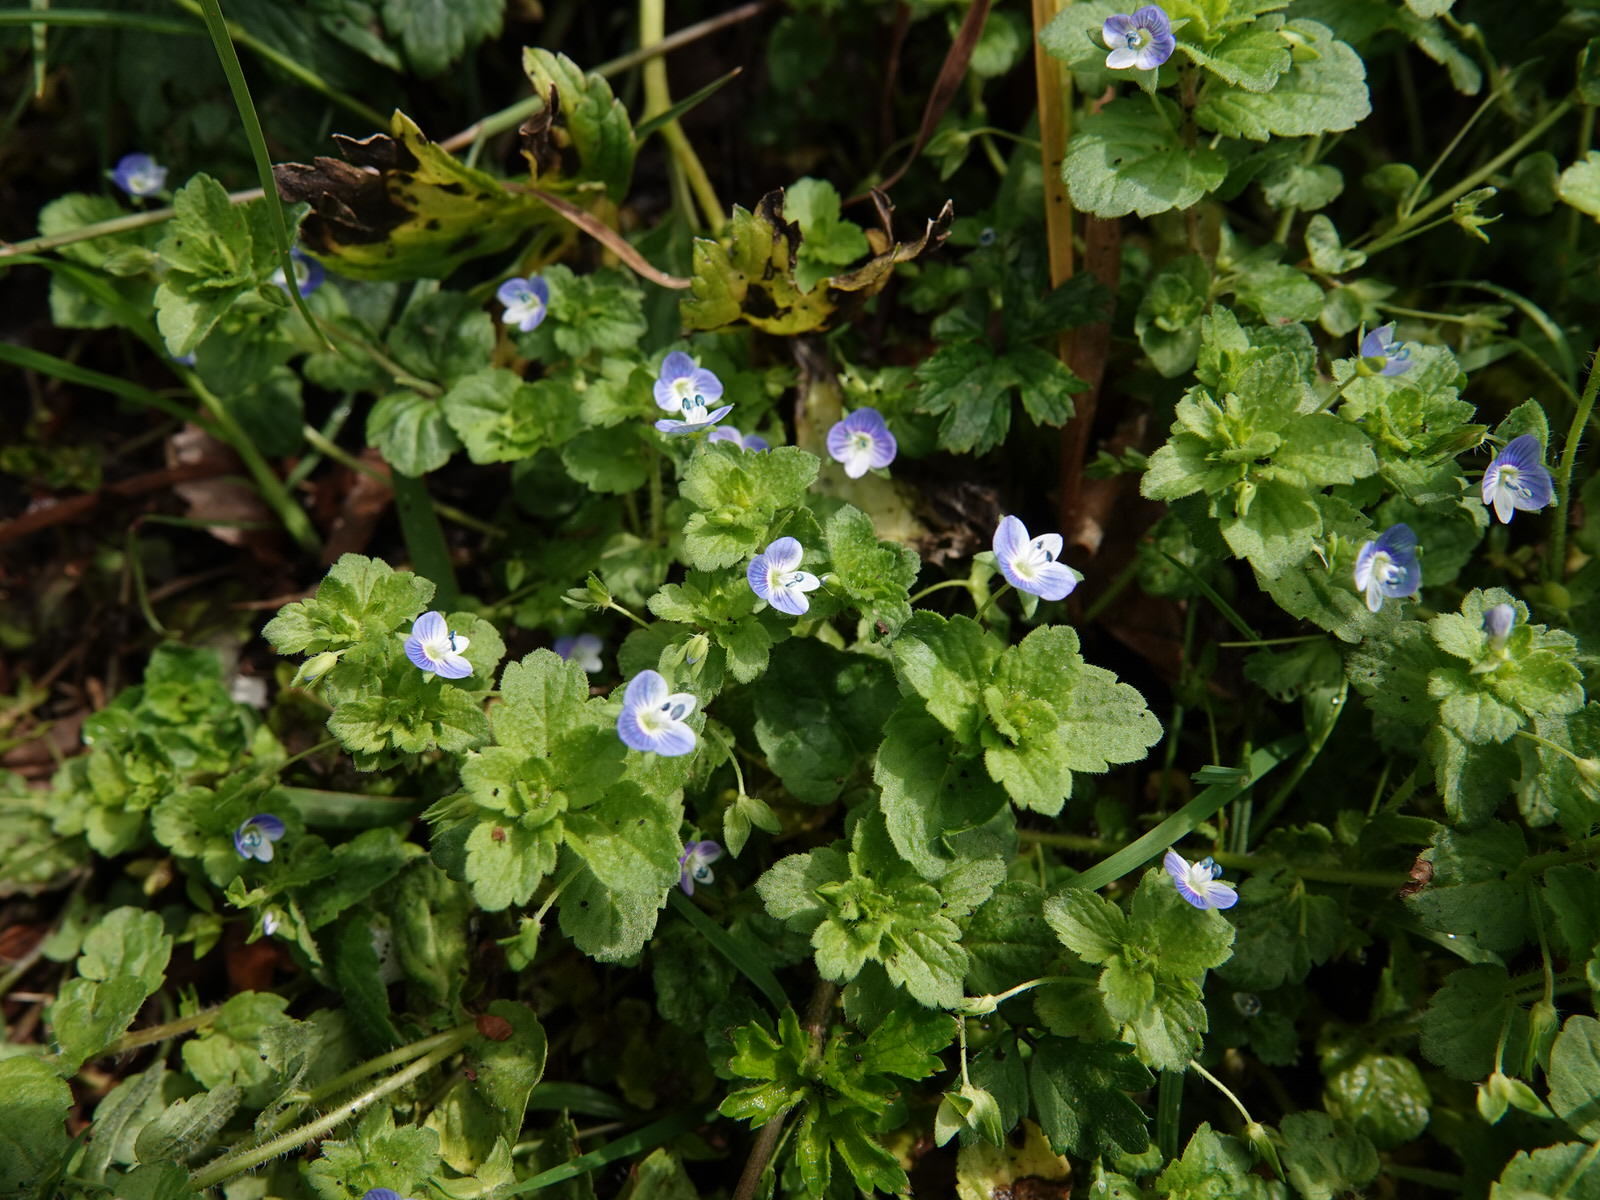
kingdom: Plantae
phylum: Tracheophyta
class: Magnoliopsida
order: Lamiales
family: Plantaginaceae
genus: Veronica
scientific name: Veronica persica
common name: Common field-speedwell
